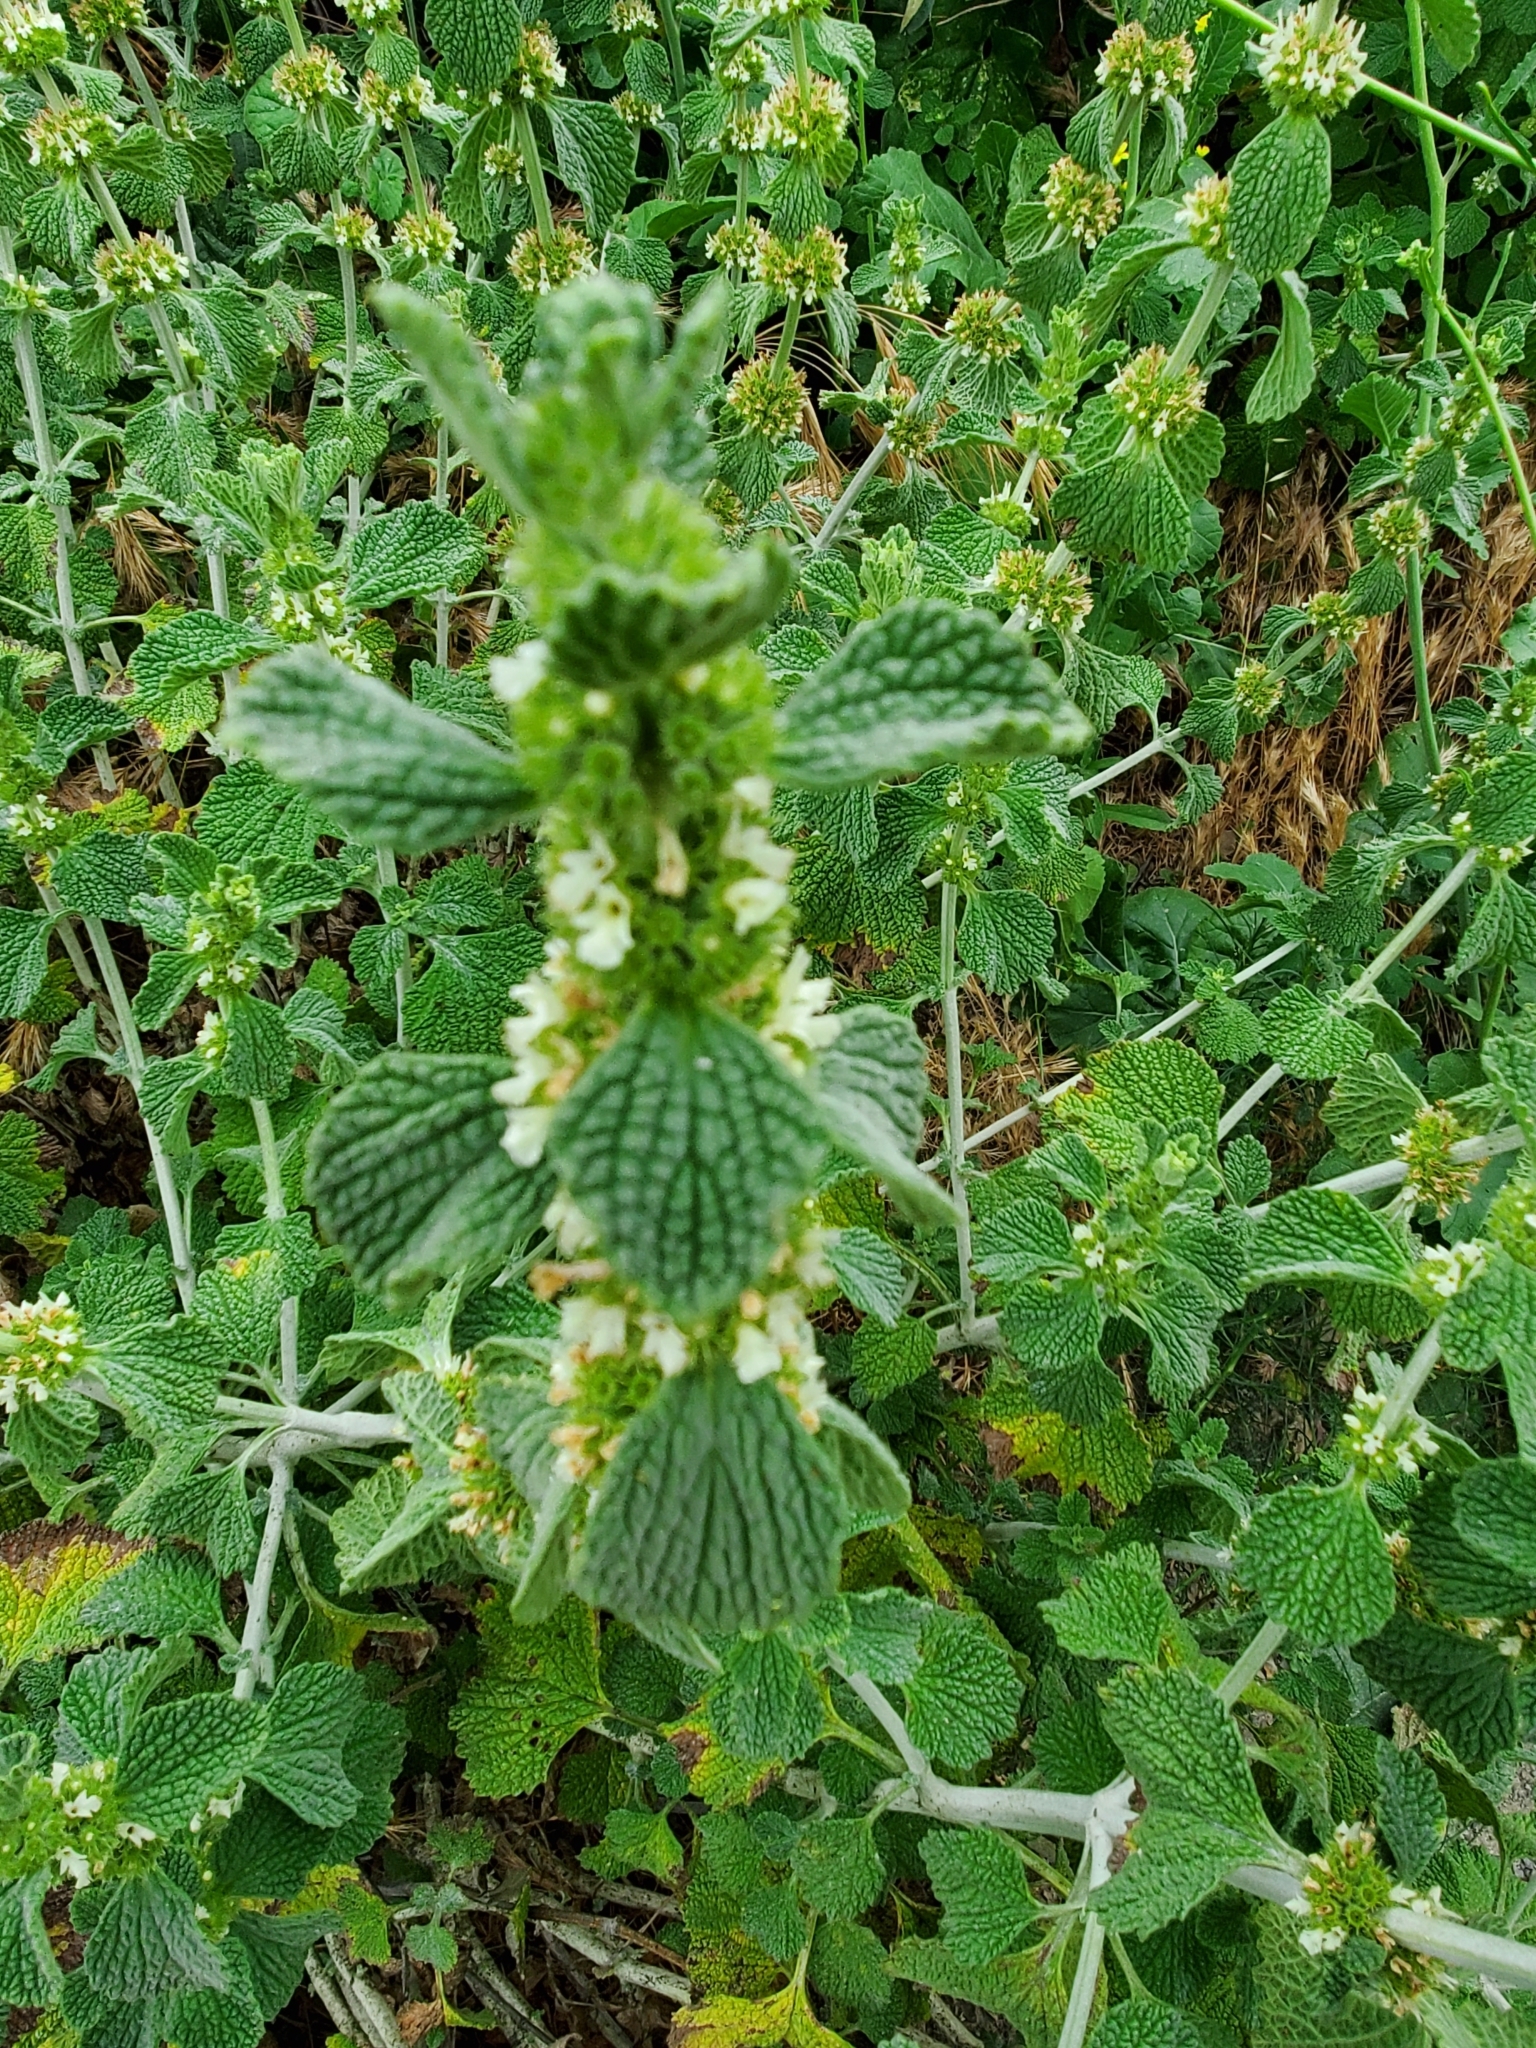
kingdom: Plantae
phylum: Tracheophyta
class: Magnoliopsida
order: Lamiales
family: Lamiaceae
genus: Marrubium
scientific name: Marrubium vulgare
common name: Horehound
